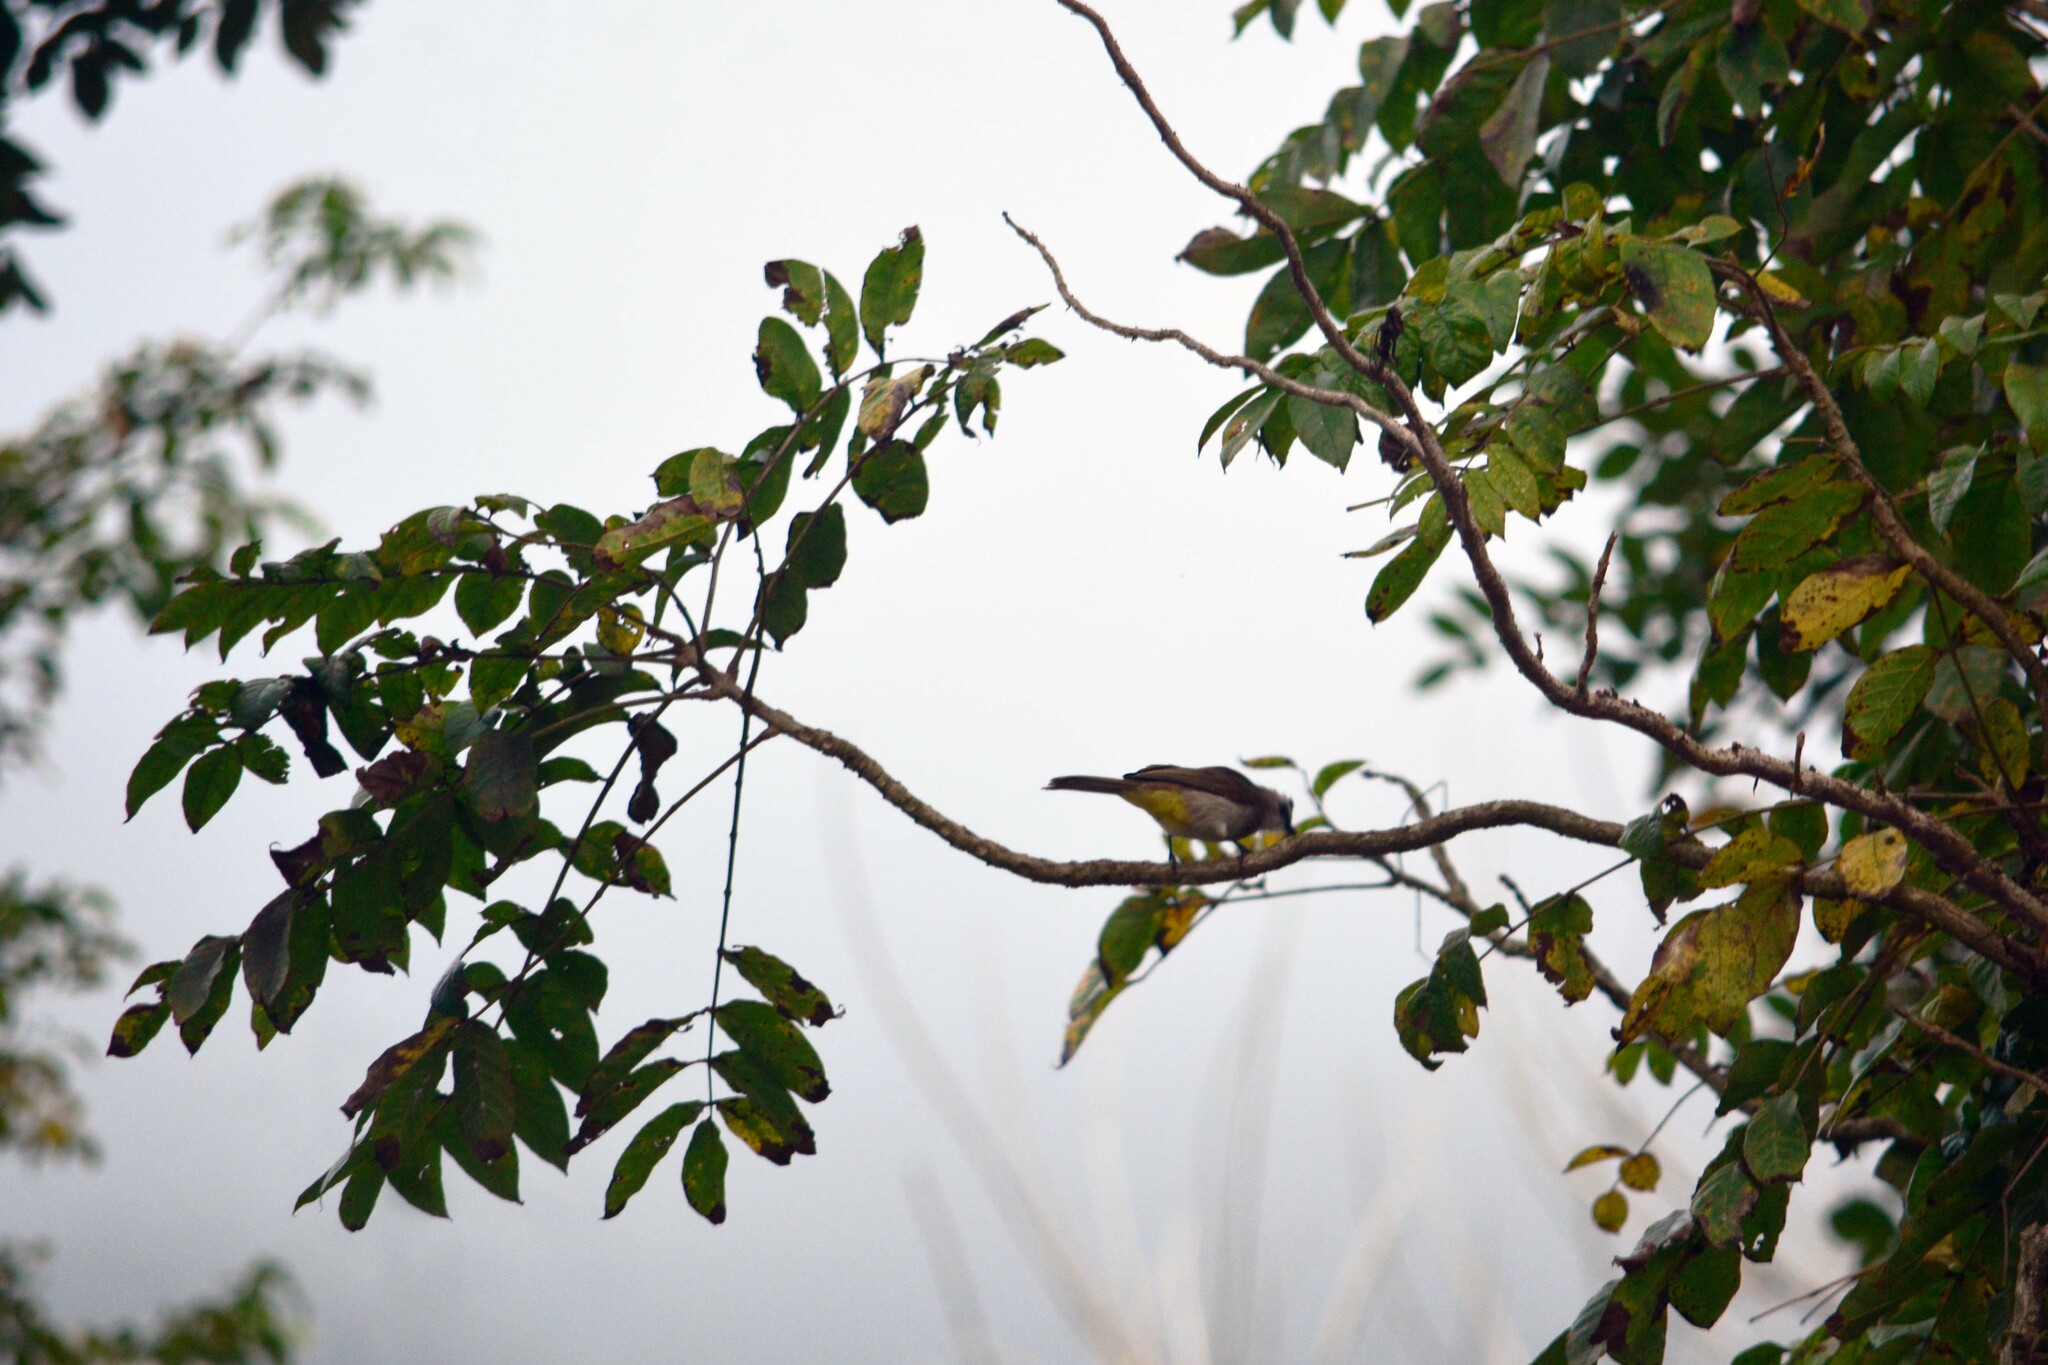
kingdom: Animalia
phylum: Chordata
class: Aves
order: Passeriformes
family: Pycnonotidae
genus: Pycnonotus
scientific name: Pycnonotus goiavier
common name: Yellow-vented bulbul
